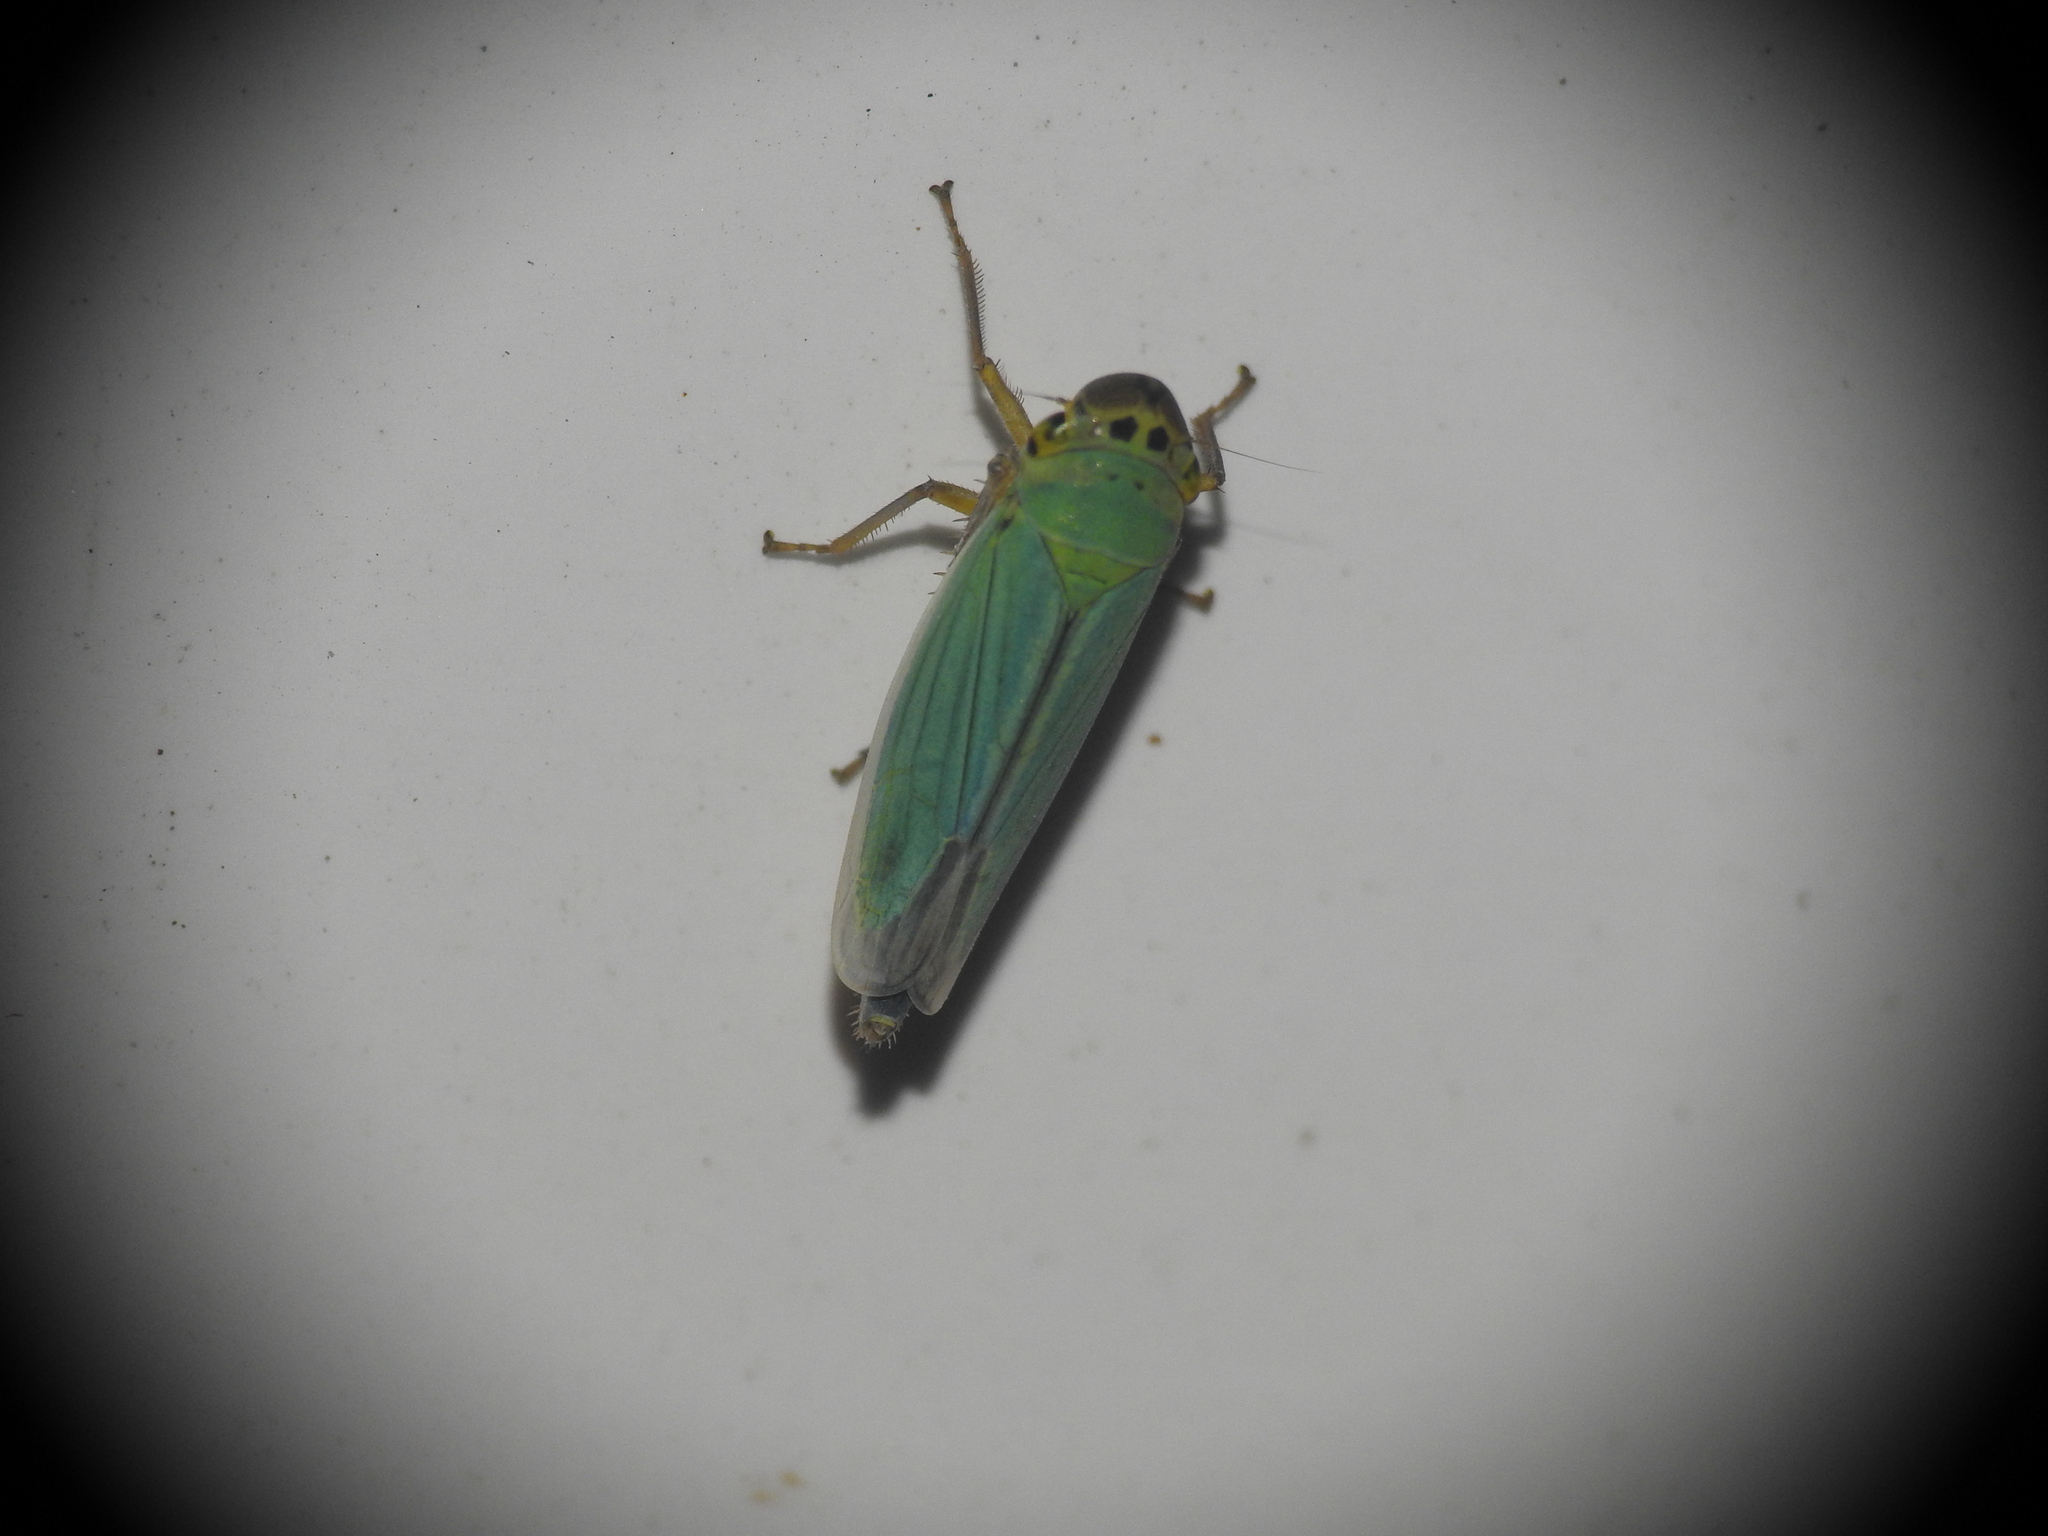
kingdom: Animalia
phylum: Arthropoda
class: Insecta
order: Hemiptera
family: Cicadellidae
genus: Cicadella
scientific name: Cicadella viridis
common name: Leafhopper
